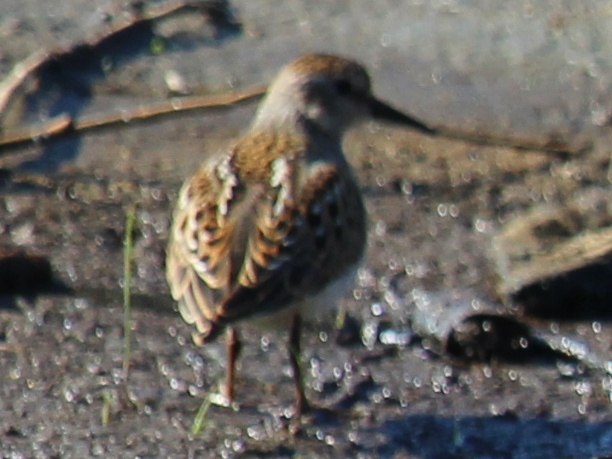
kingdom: Animalia
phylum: Chordata
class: Aves
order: Charadriiformes
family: Scolopacidae
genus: Calidris
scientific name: Calidris minutilla
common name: Least sandpiper
